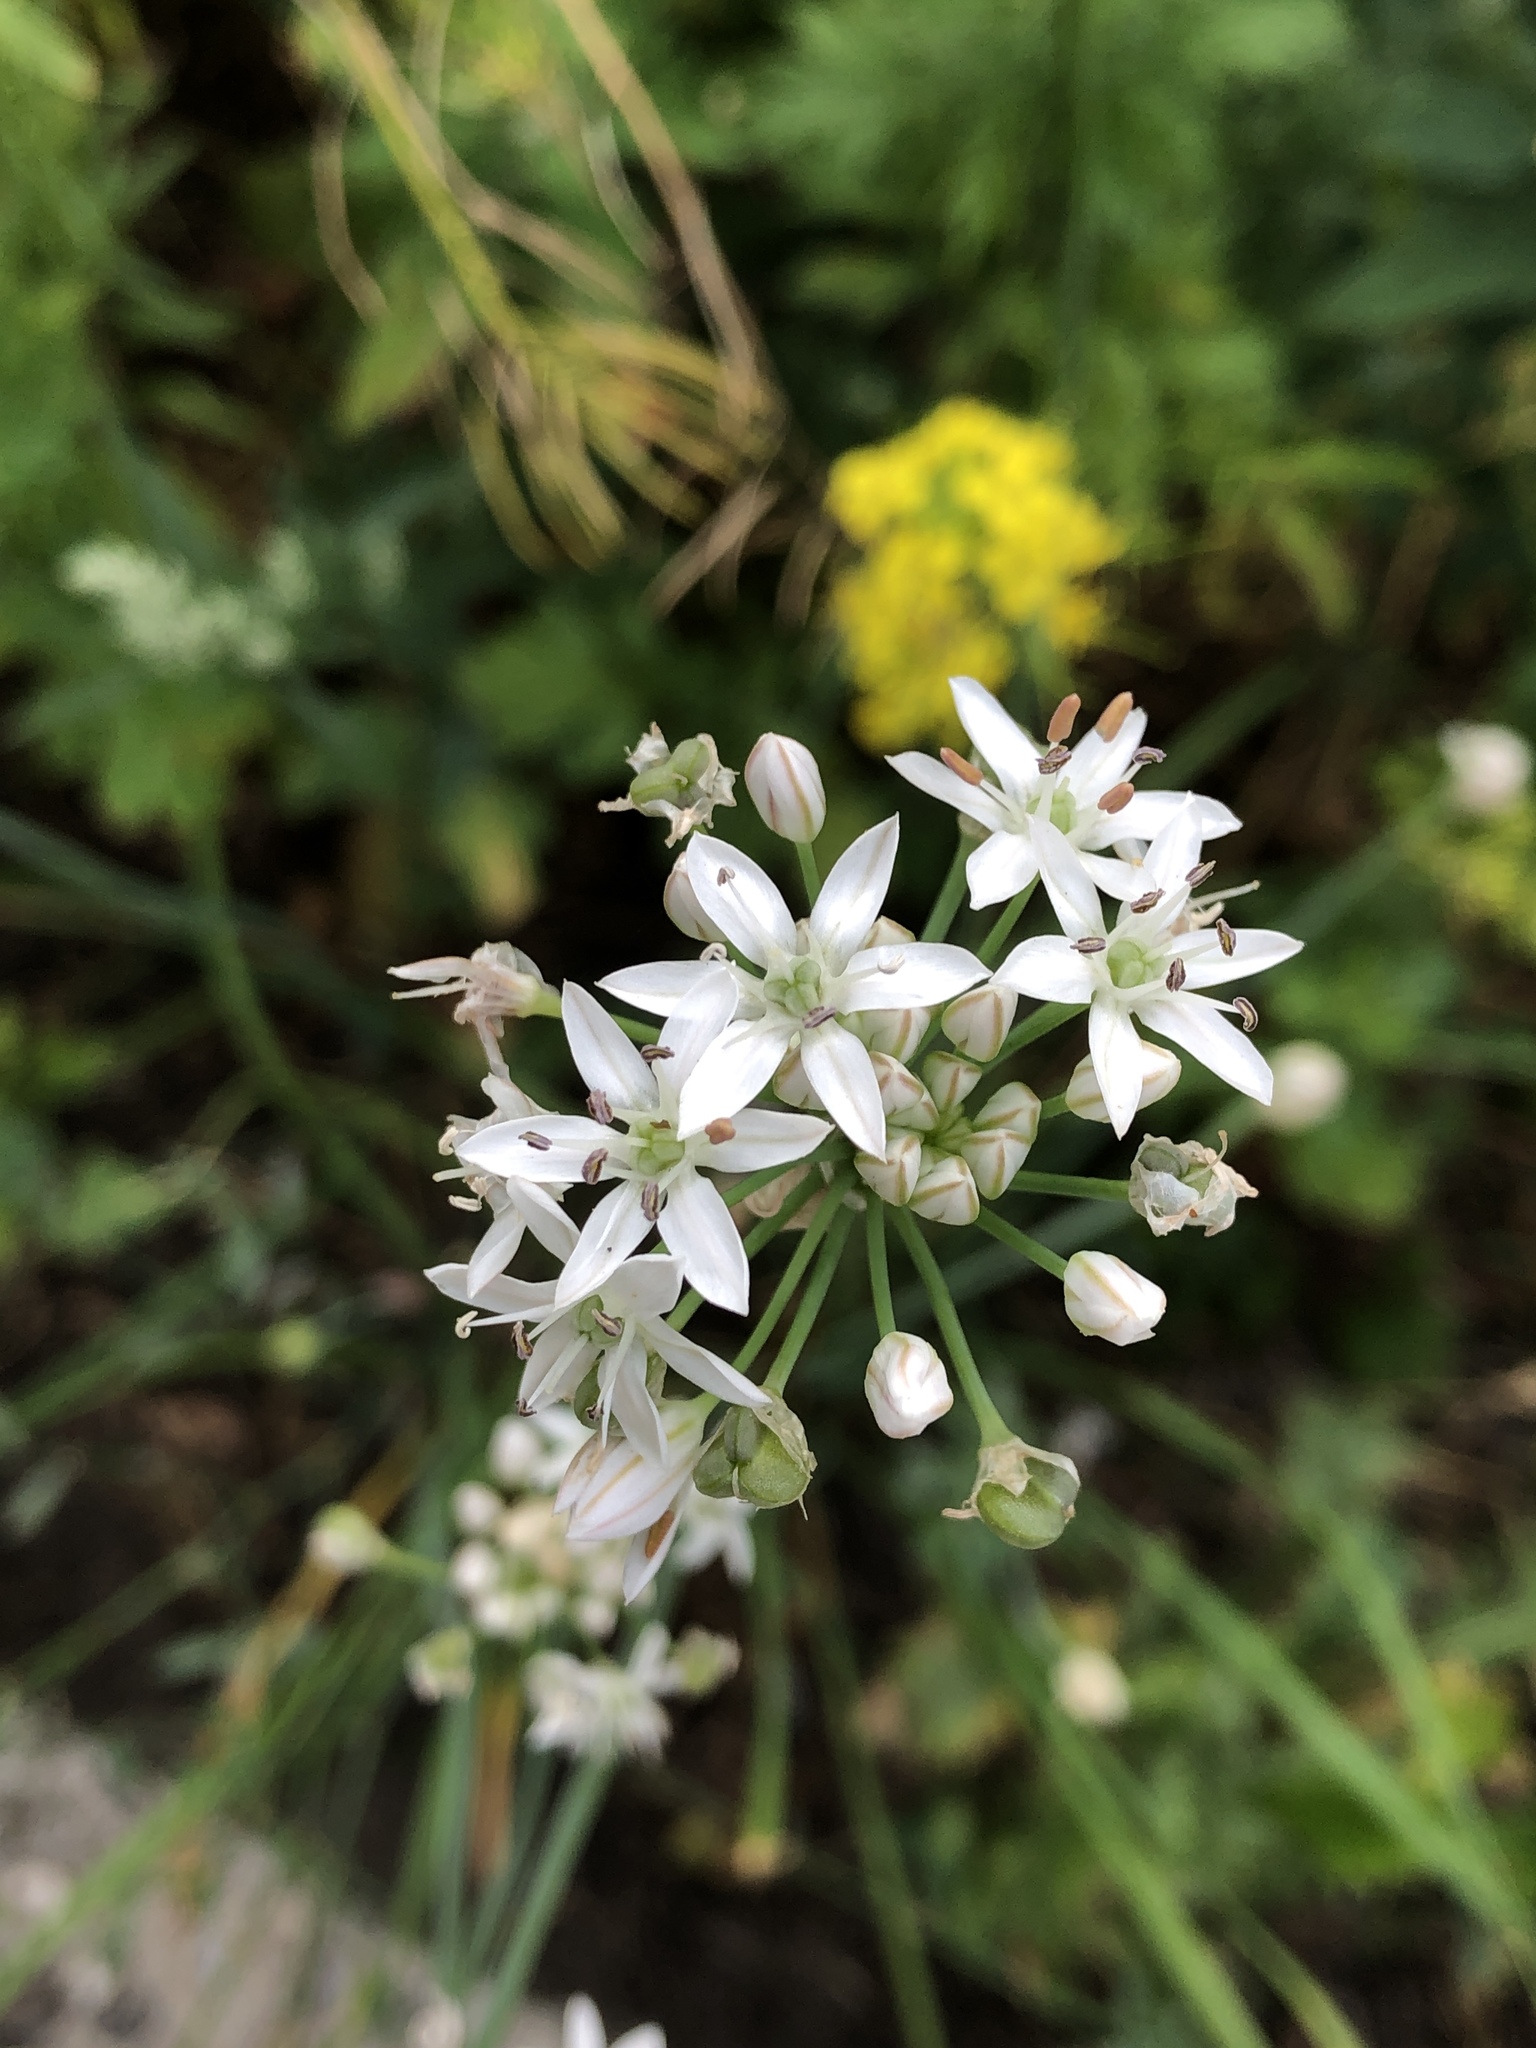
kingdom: Plantae
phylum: Tracheophyta
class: Liliopsida
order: Asparagales
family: Amaryllidaceae
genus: Allium
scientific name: Allium tuberosum
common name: Chinese chives
